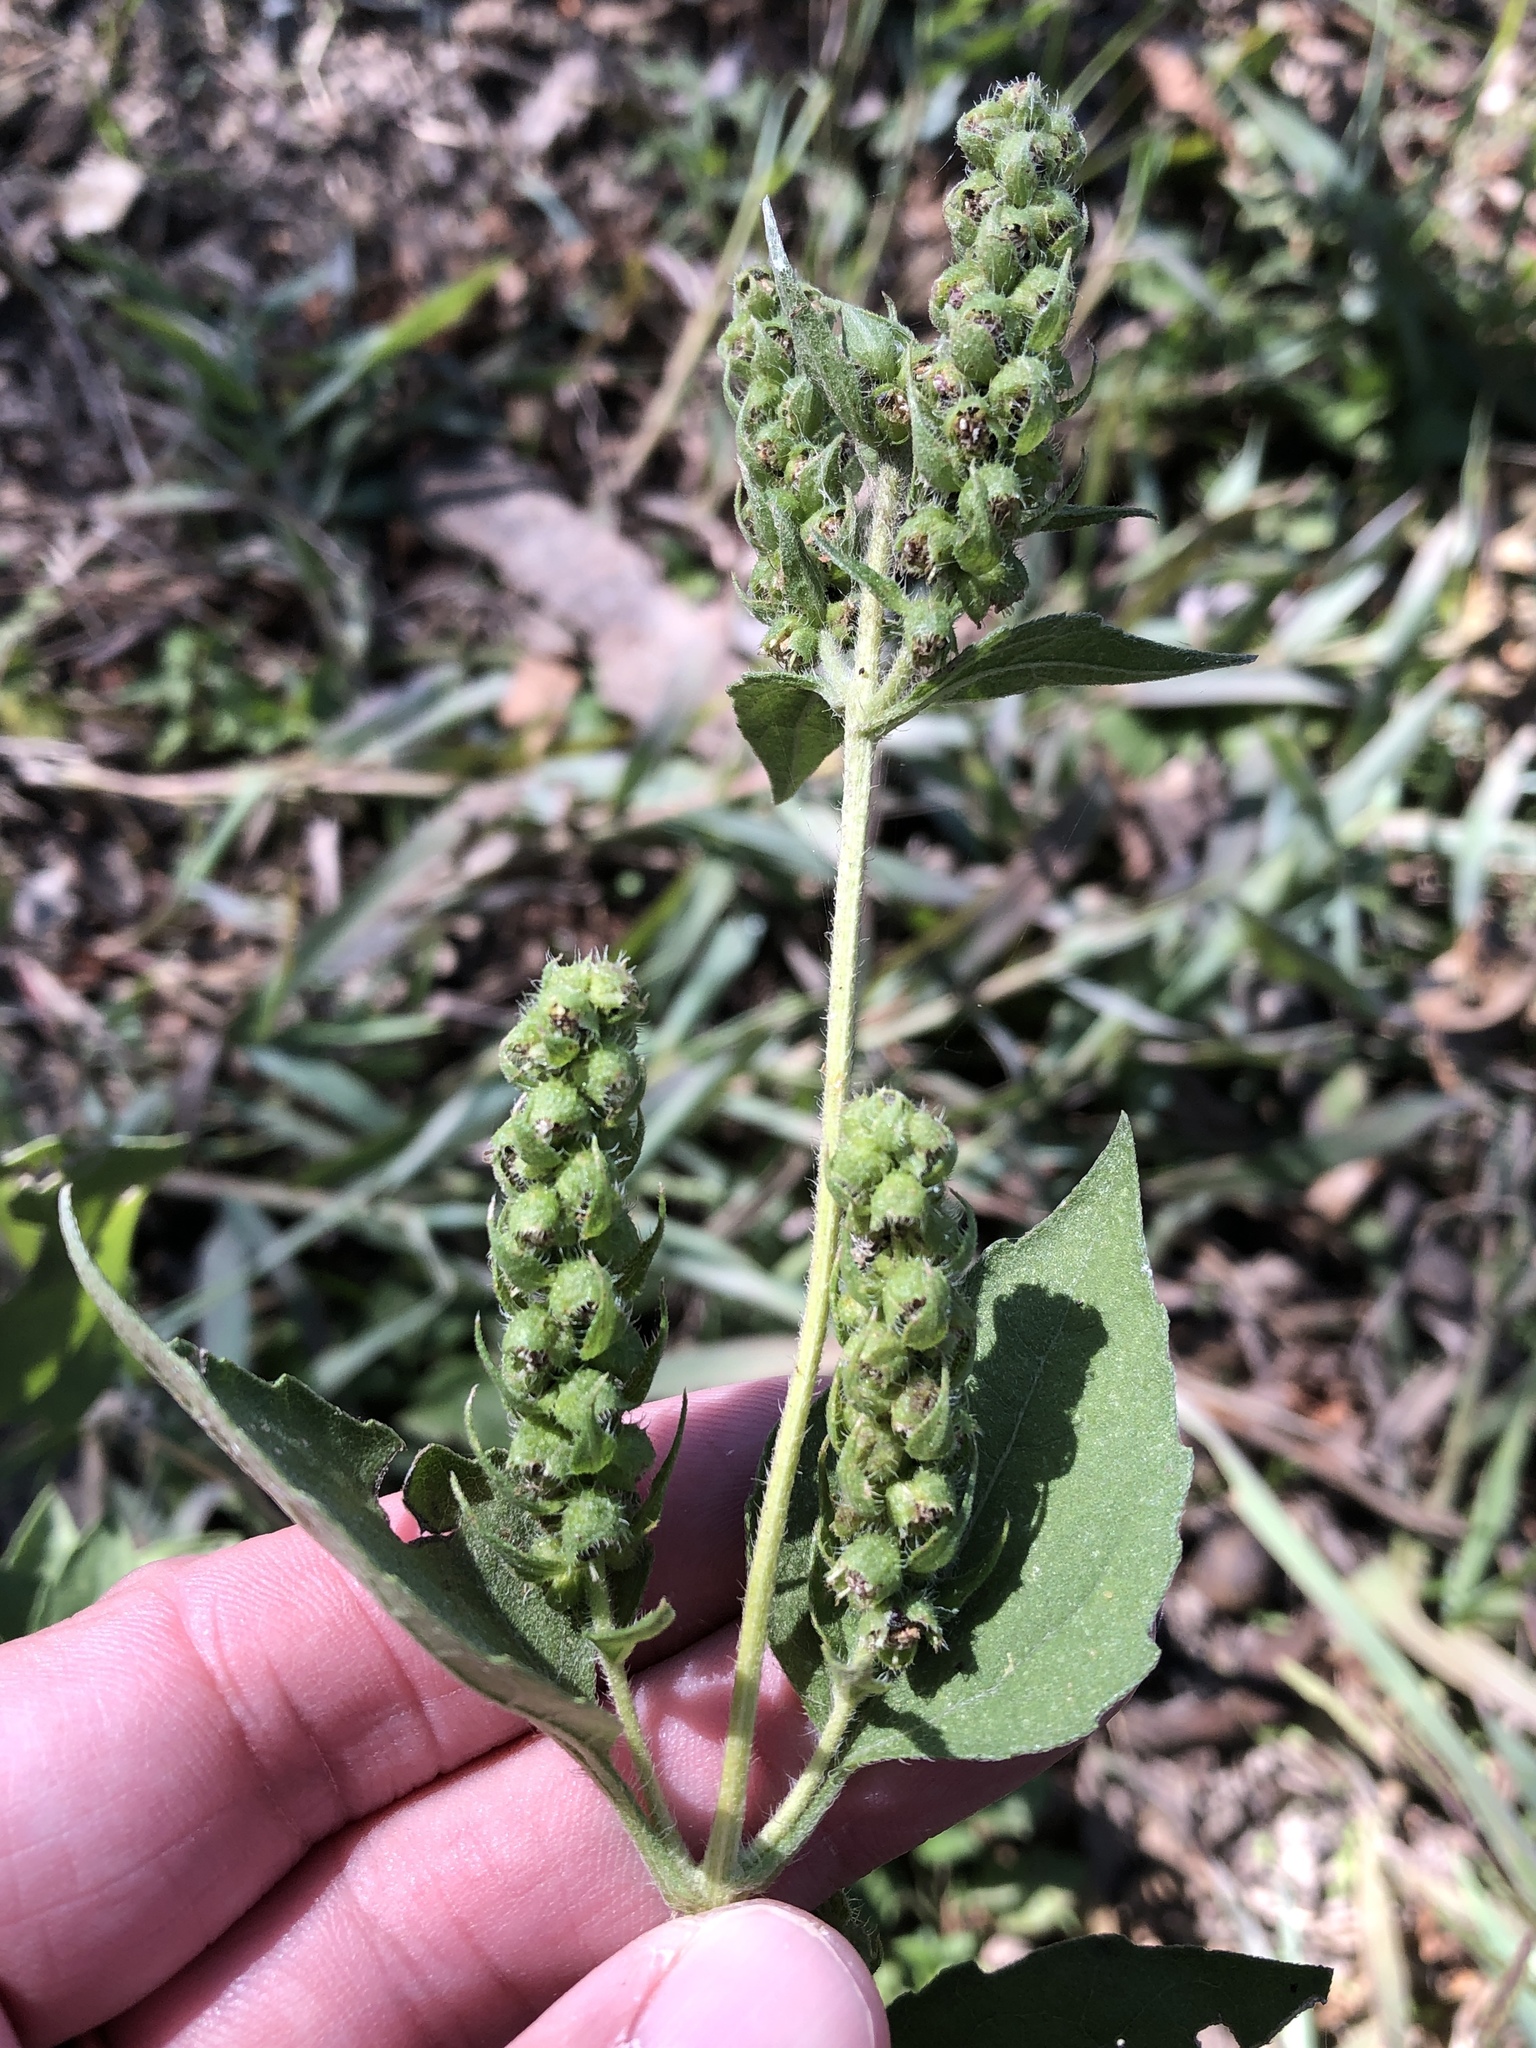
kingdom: Plantae
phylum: Tracheophyta
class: Magnoliopsida
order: Asterales
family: Asteraceae
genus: Iva
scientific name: Iva annua
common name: Marsh-elder
